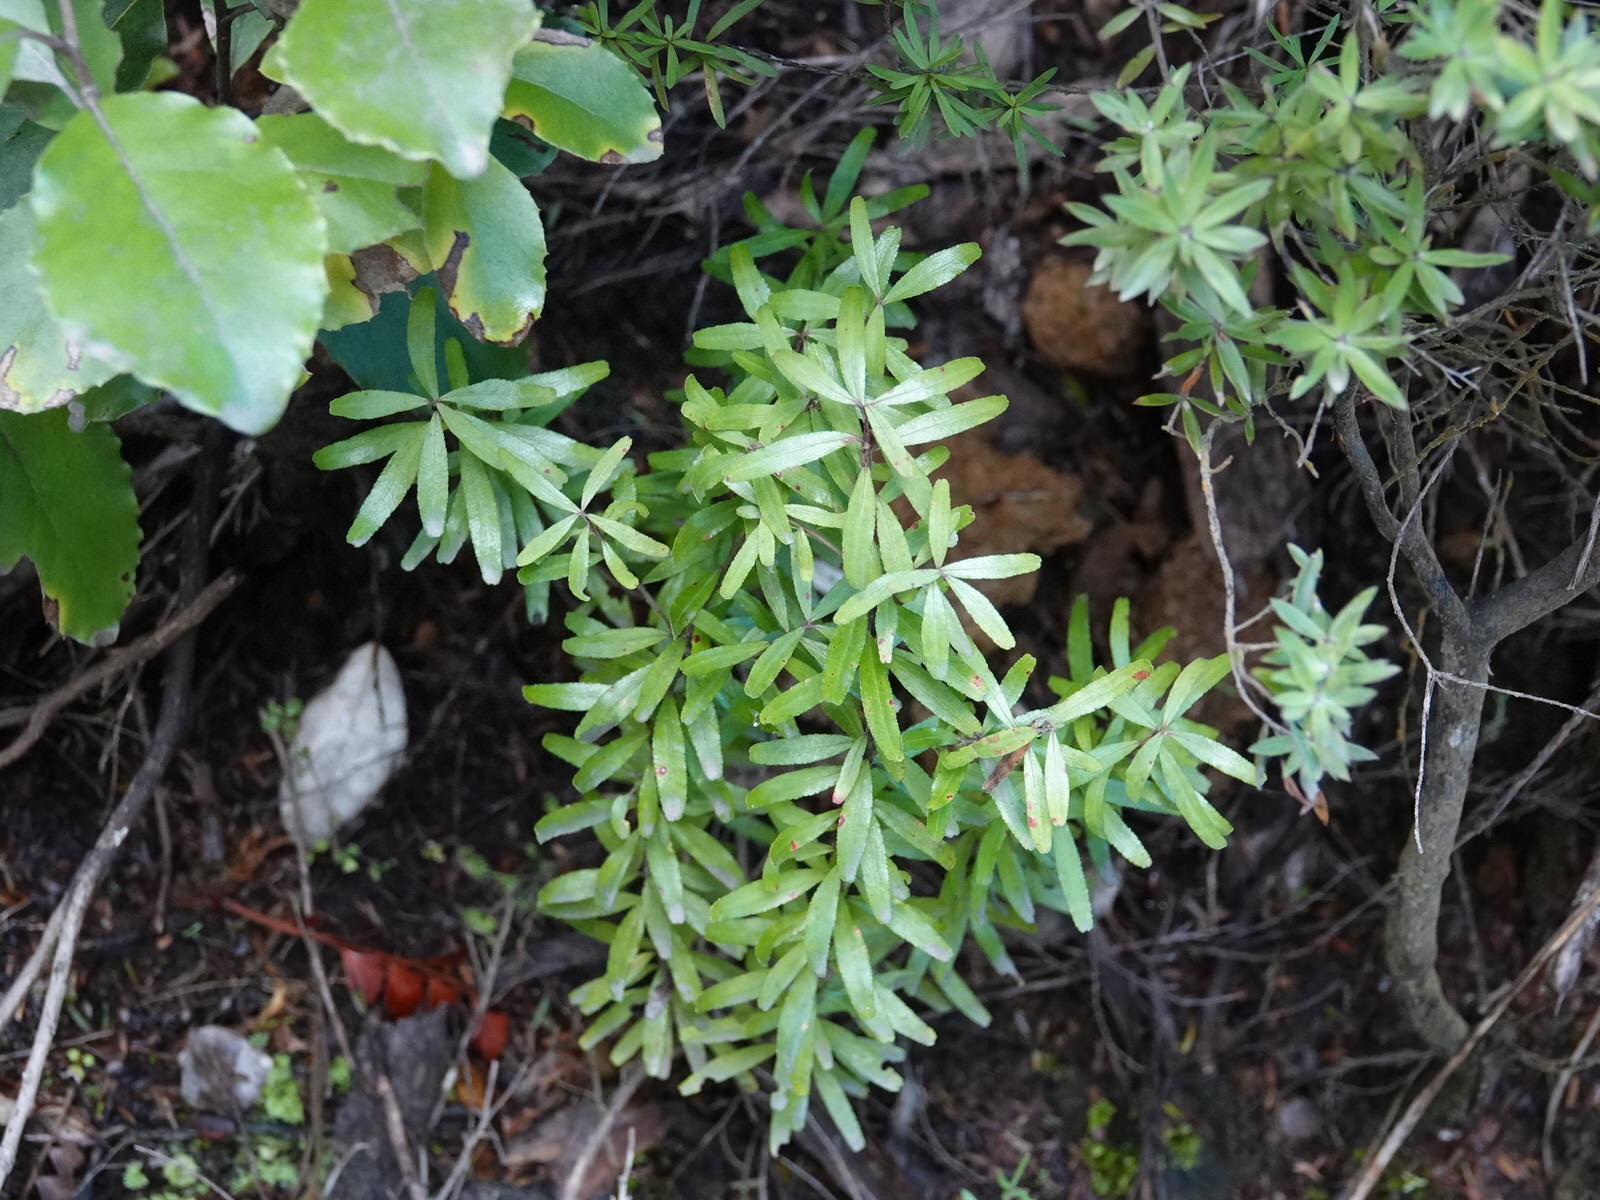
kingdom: Plantae
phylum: Tracheophyta
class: Magnoliopsida
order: Sapindales
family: Rutaceae
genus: Leionema
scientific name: Leionema nudum
